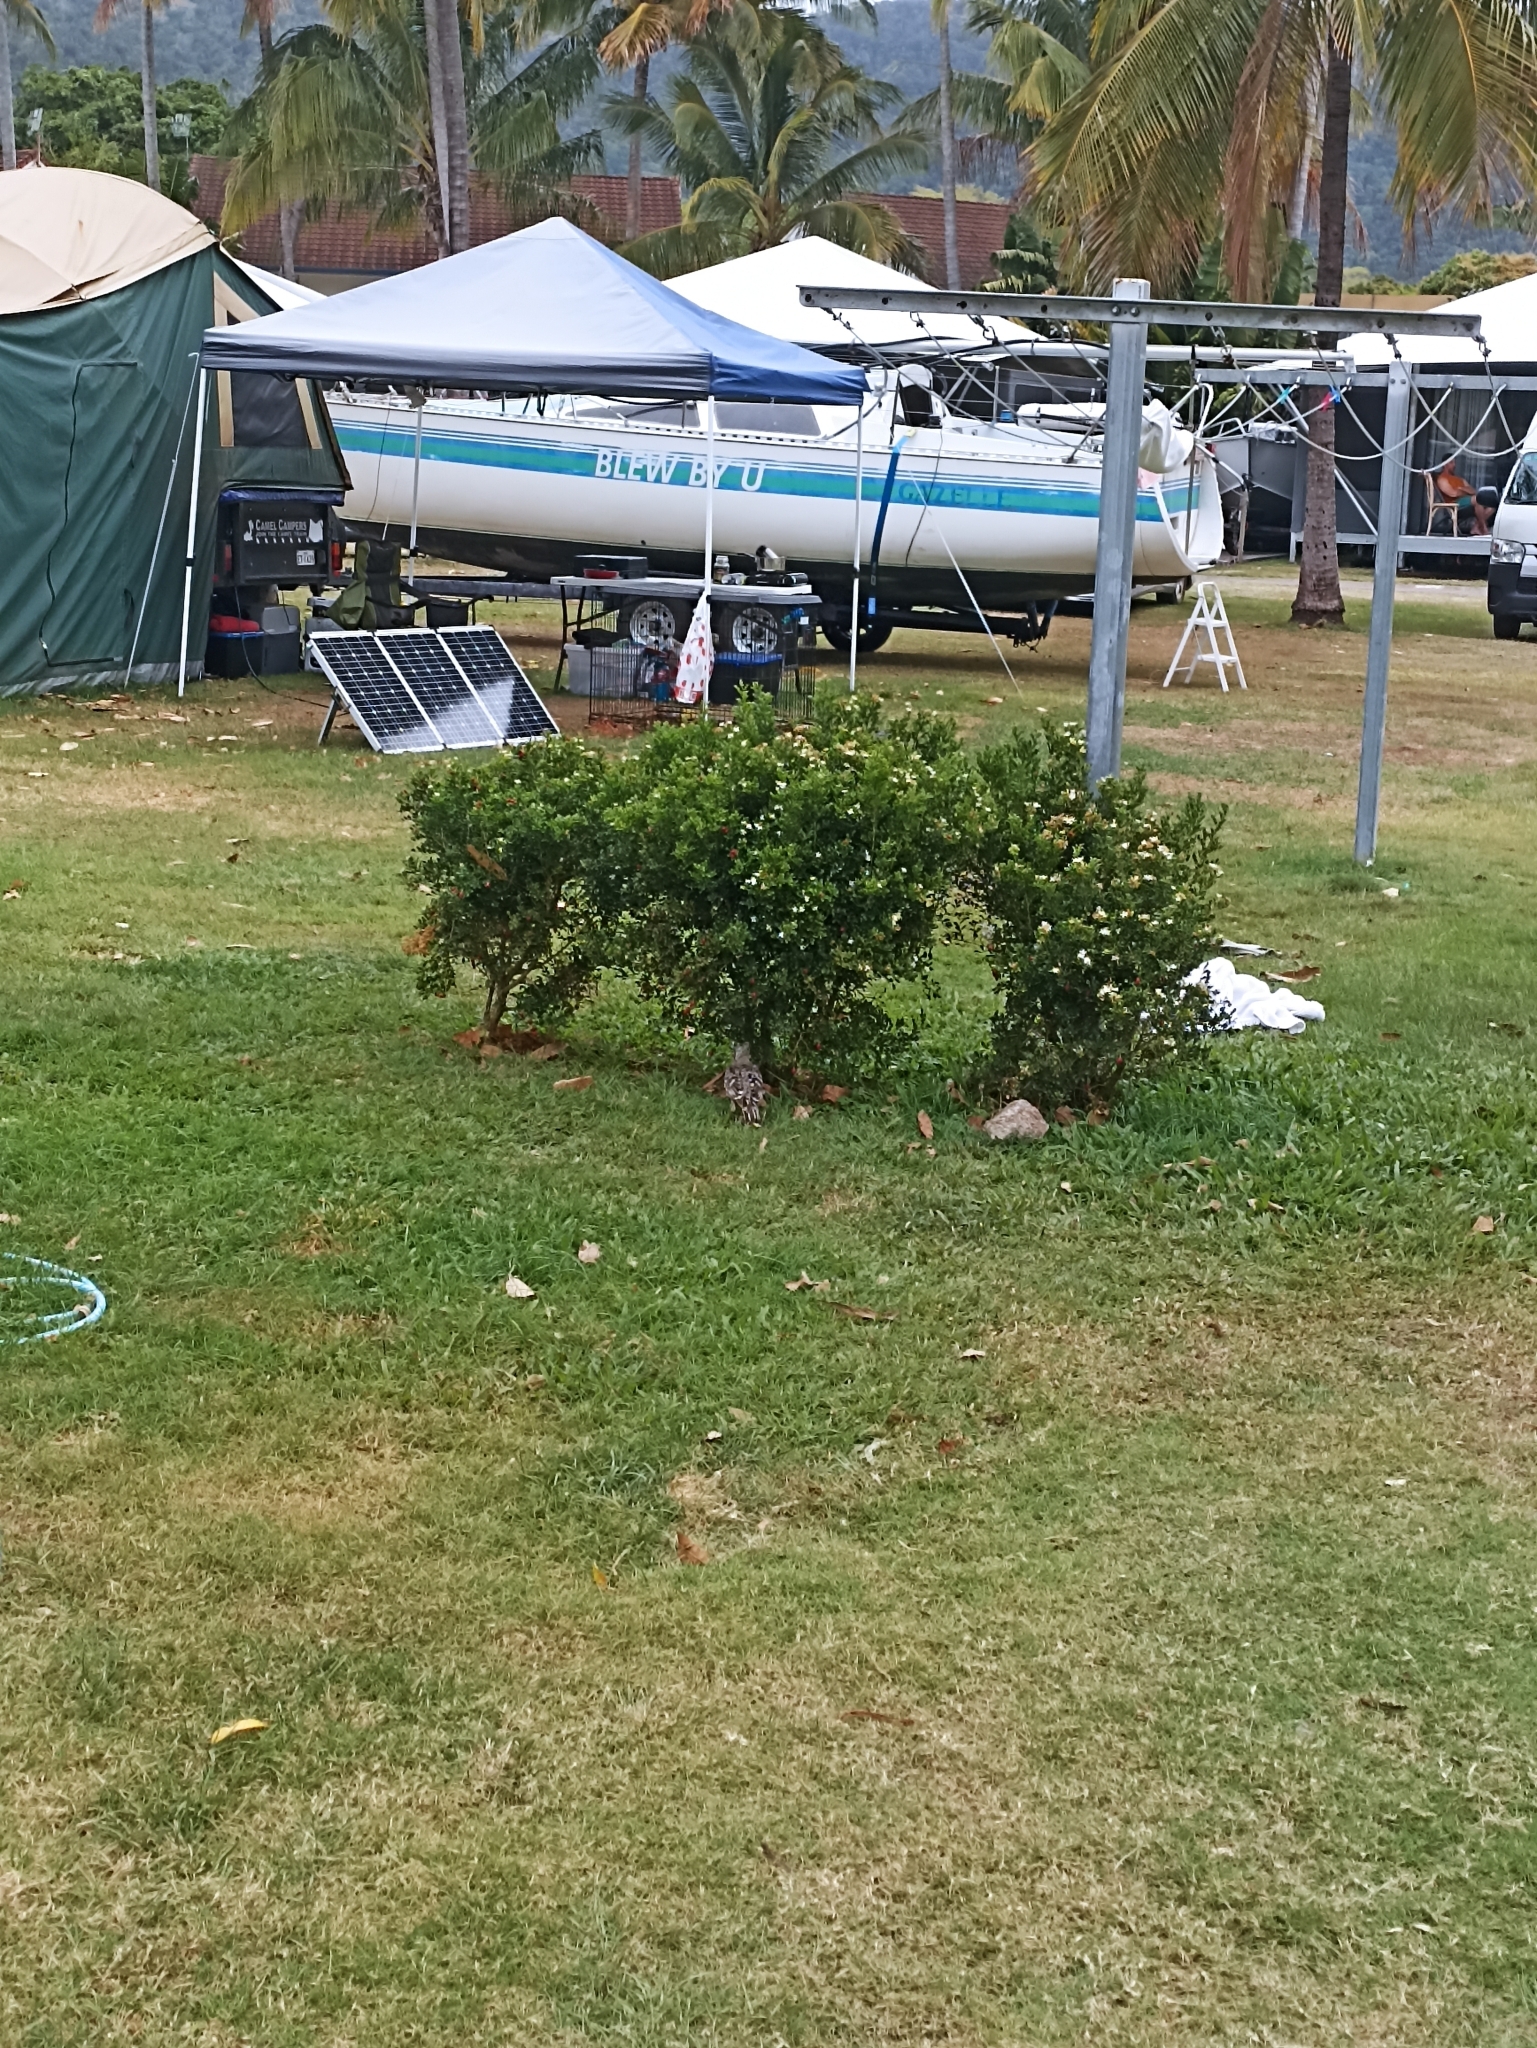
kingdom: Animalia
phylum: Chordata
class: Aves
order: Passeriformes
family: Ptilonorhynchidae
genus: Chlamydera
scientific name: Chlamydera nuchalis
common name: Great bowerbird
